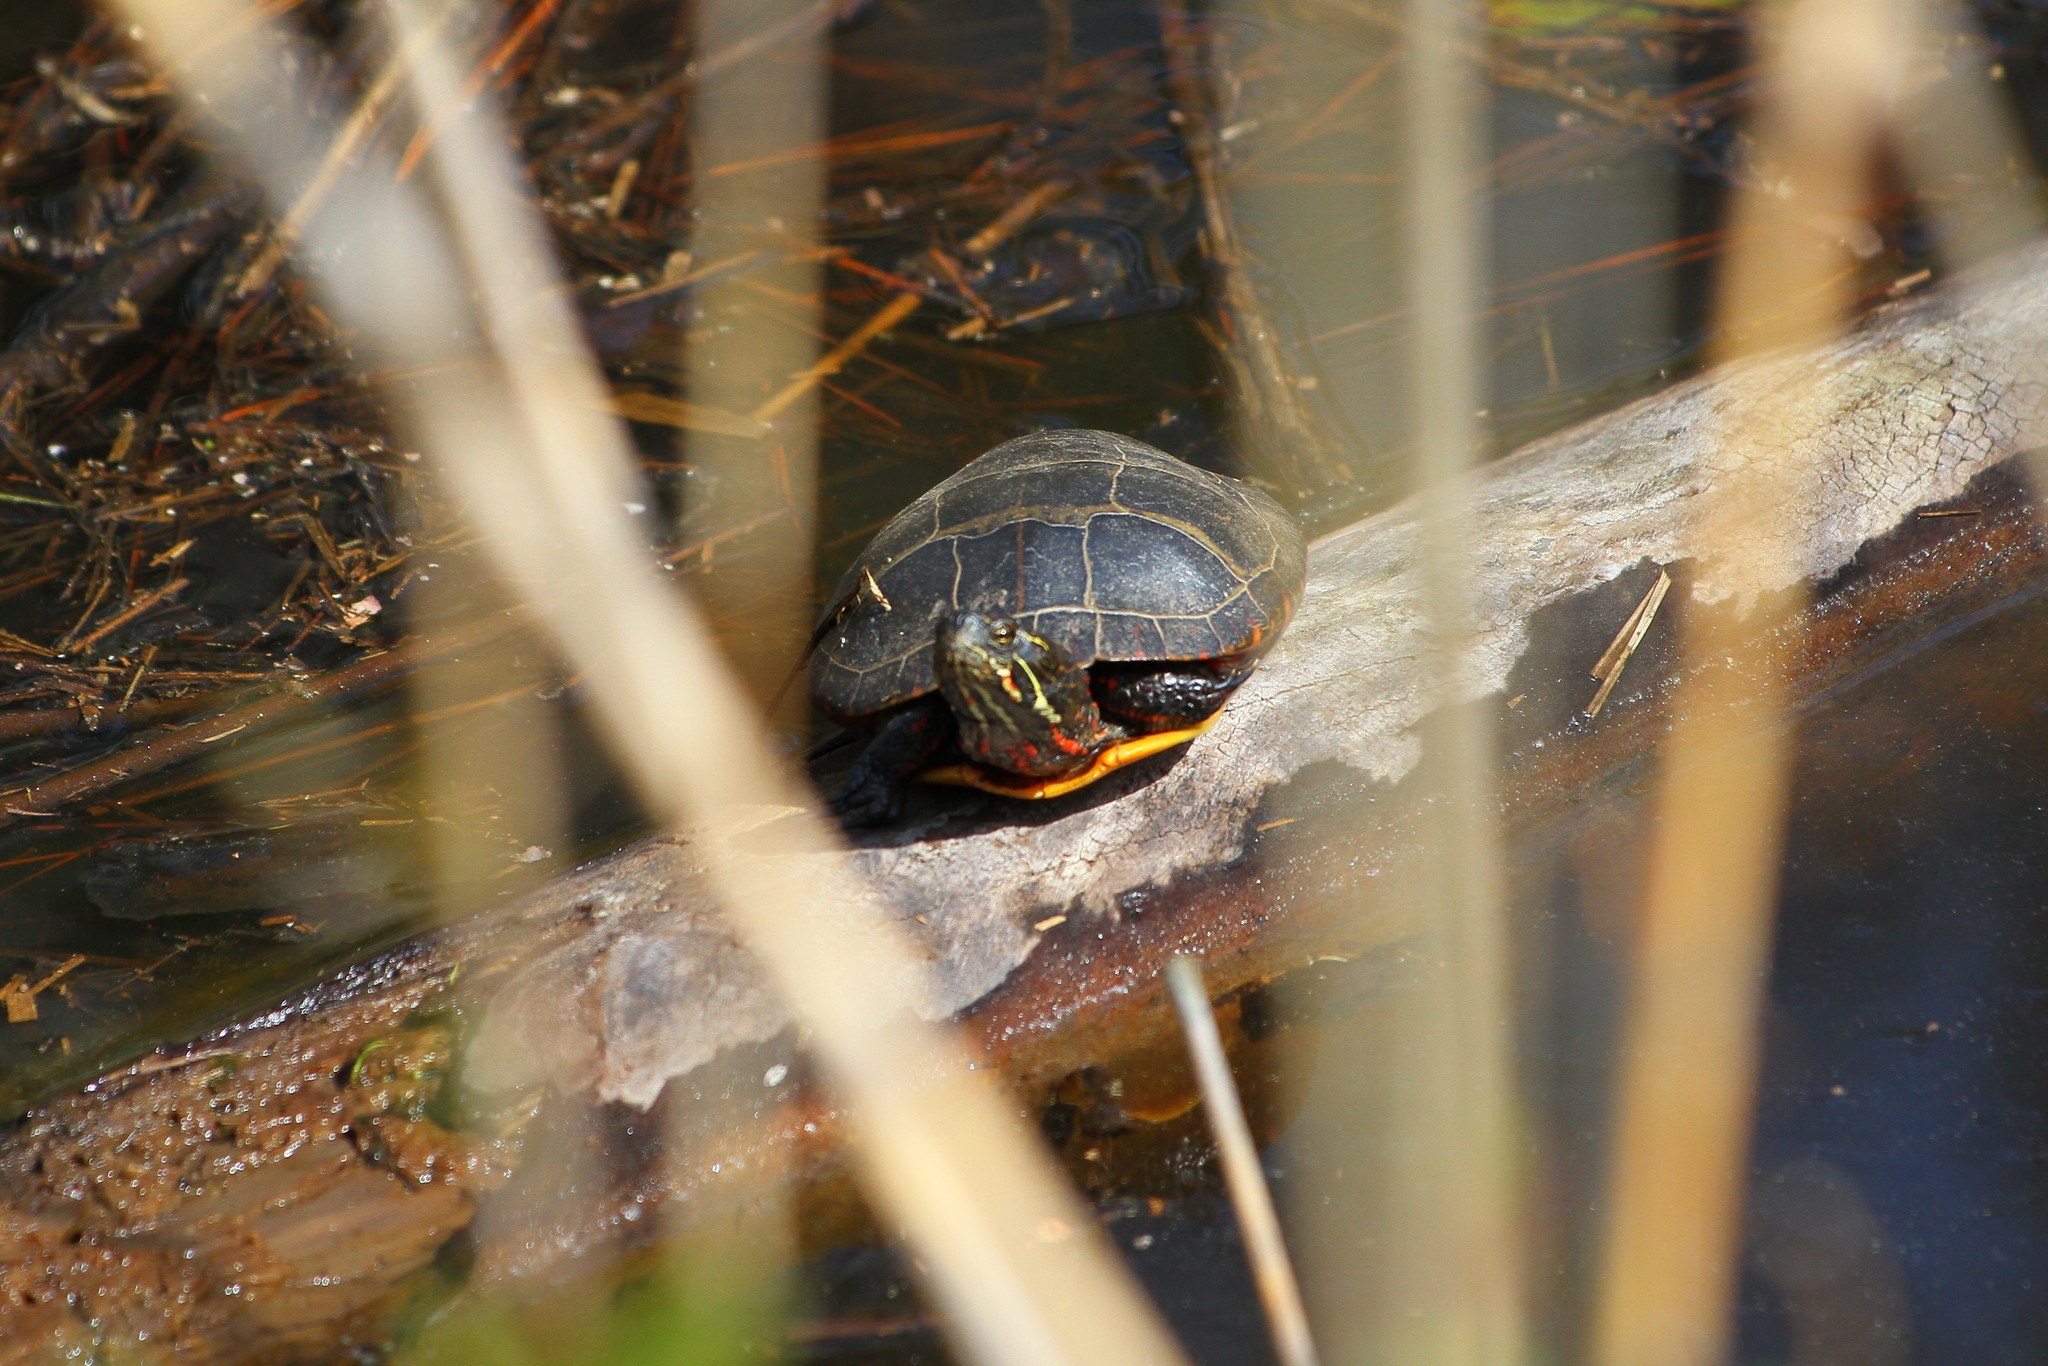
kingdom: Animalia
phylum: Chordata
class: Testudines
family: Emydidae
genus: Chrysemys
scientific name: Chrysemys picta
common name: Painted turtle
